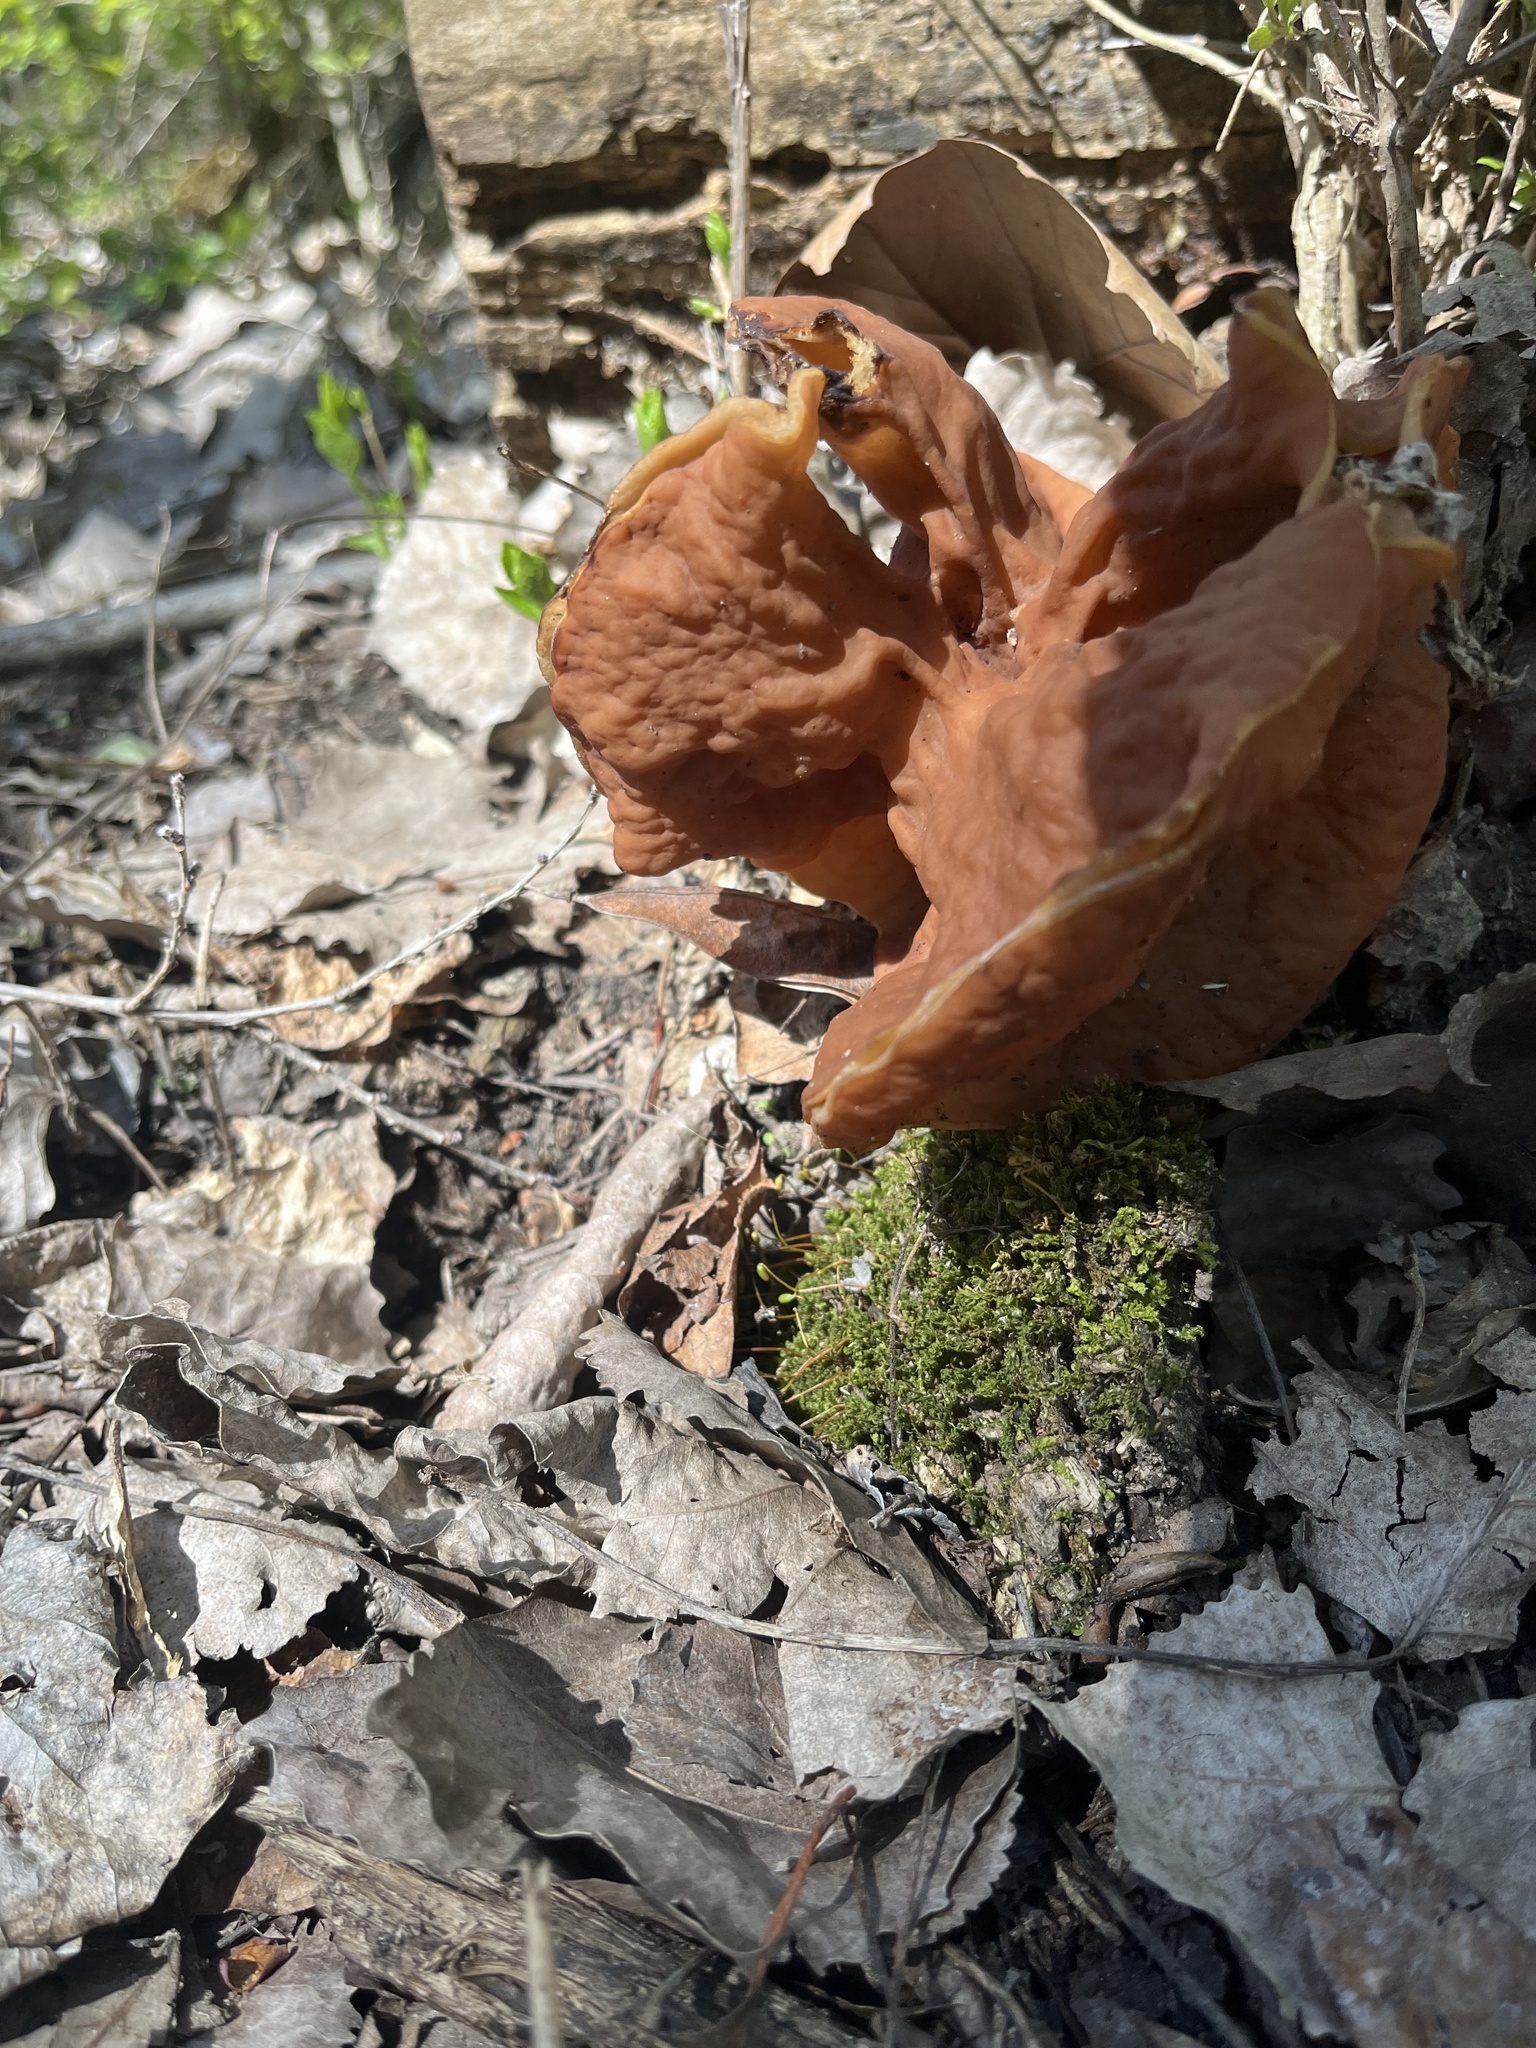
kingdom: Fungi
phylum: Ascomycota
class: Pezizomycetes
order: Pezizales
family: Discinaceae
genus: Discina
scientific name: Discina brunnea
